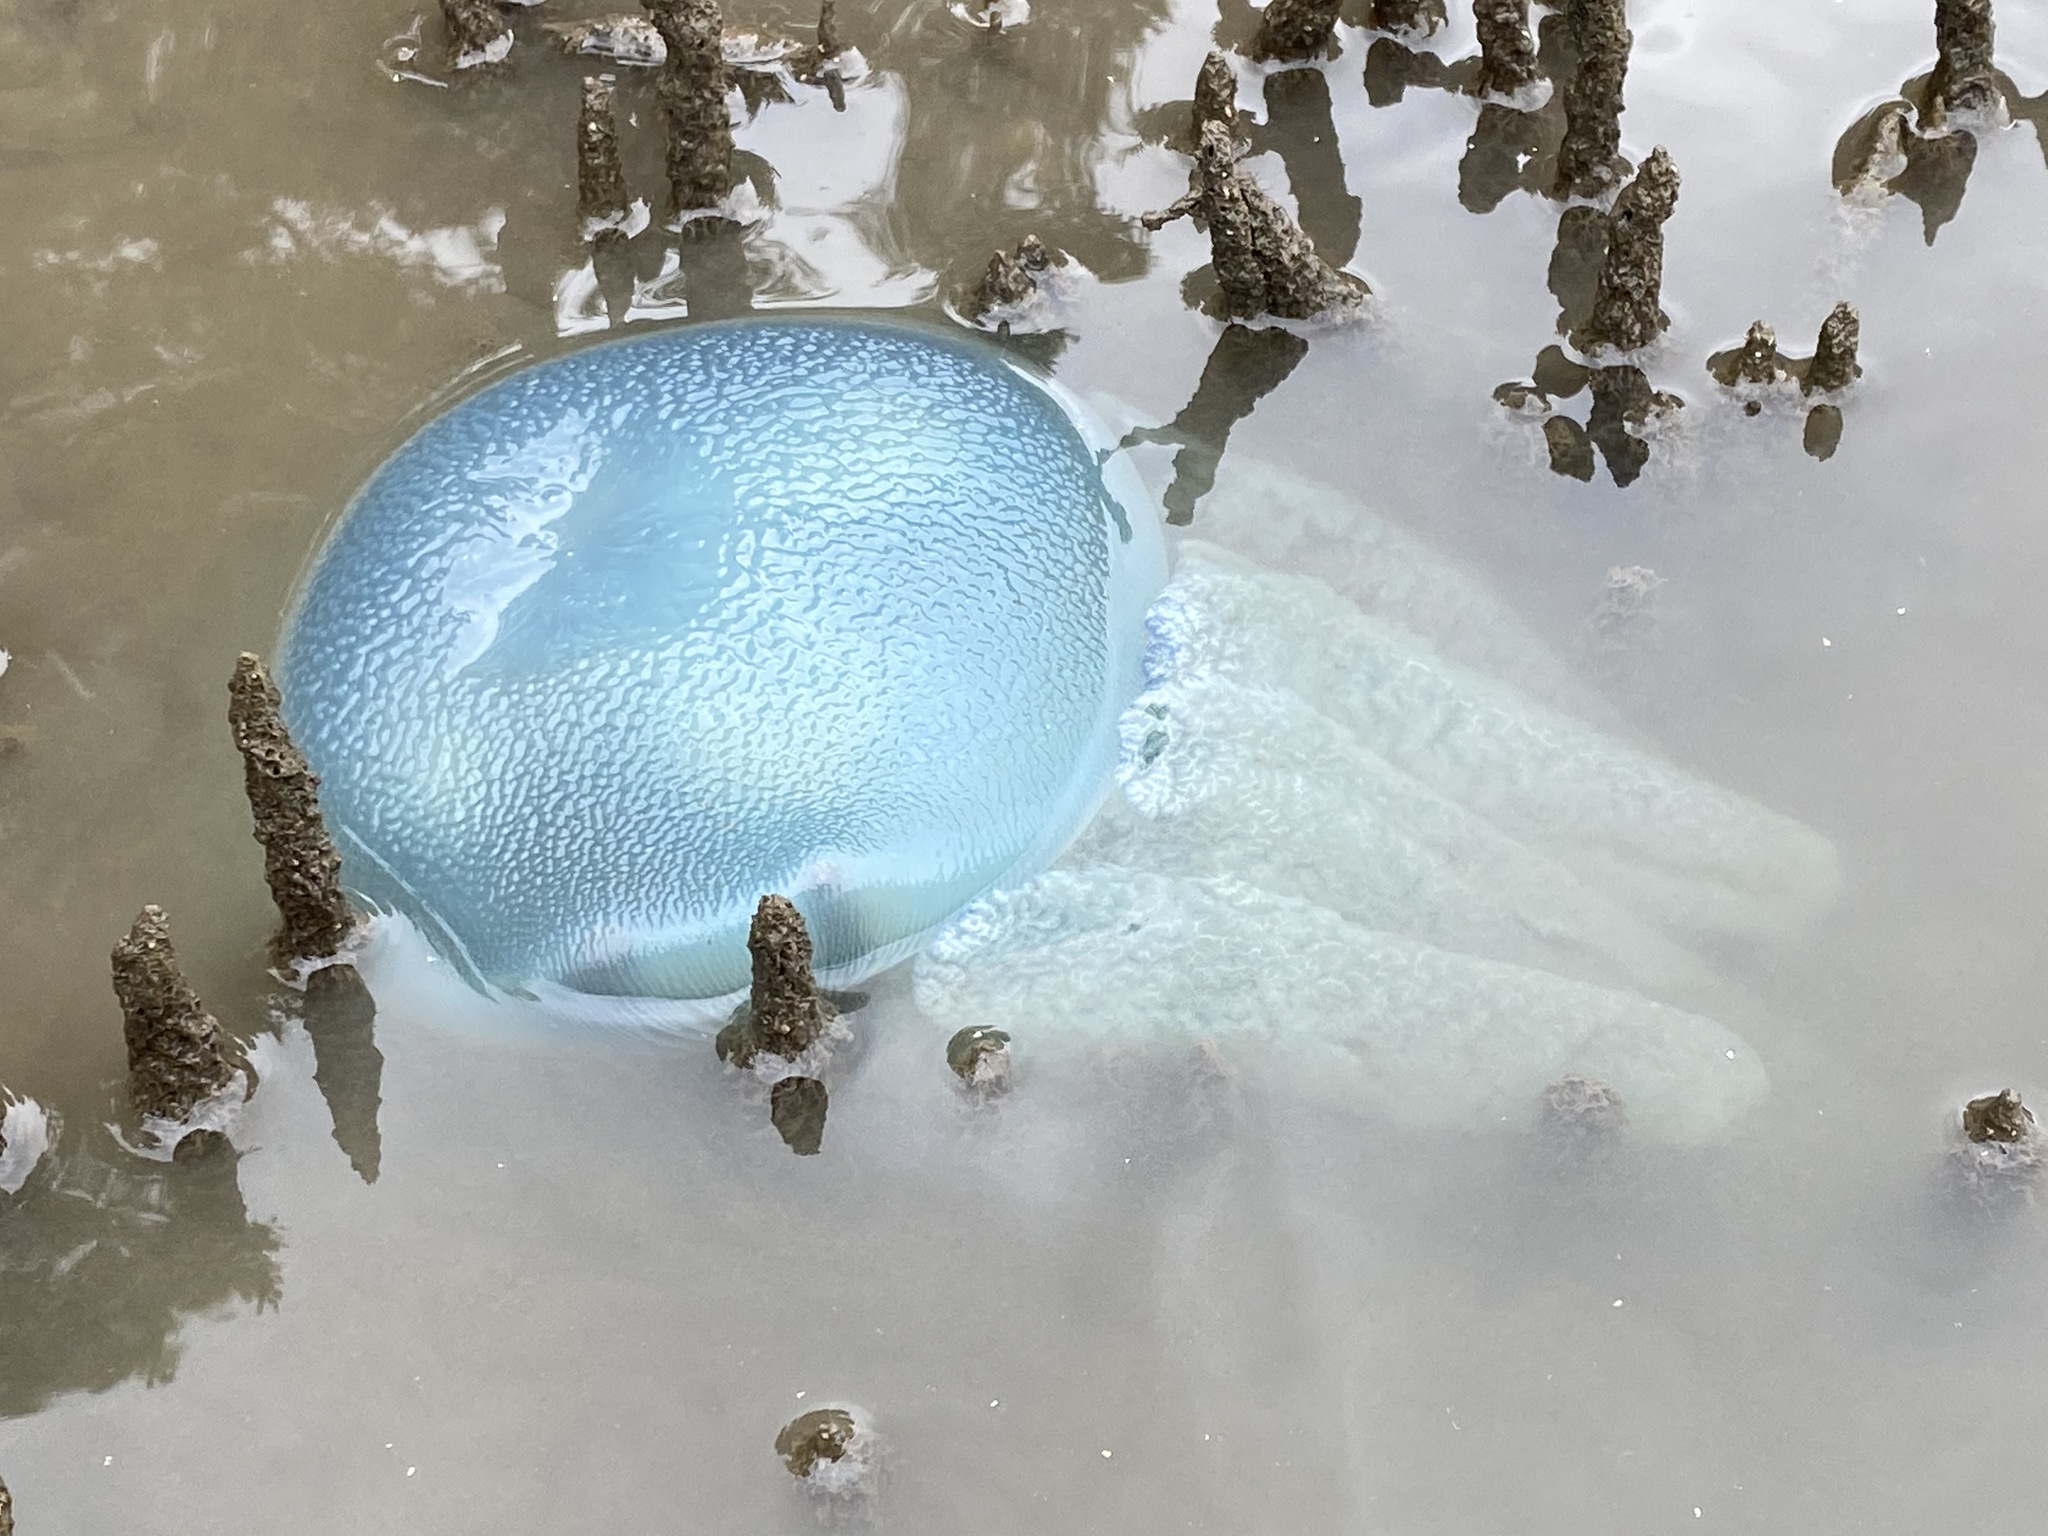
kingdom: Animalia
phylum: Cnidaria
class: Scyphozoa
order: Rhizostomeae
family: Catostylidae
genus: Catostylus
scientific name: Catostylus mosaicus
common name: Blue blubber
